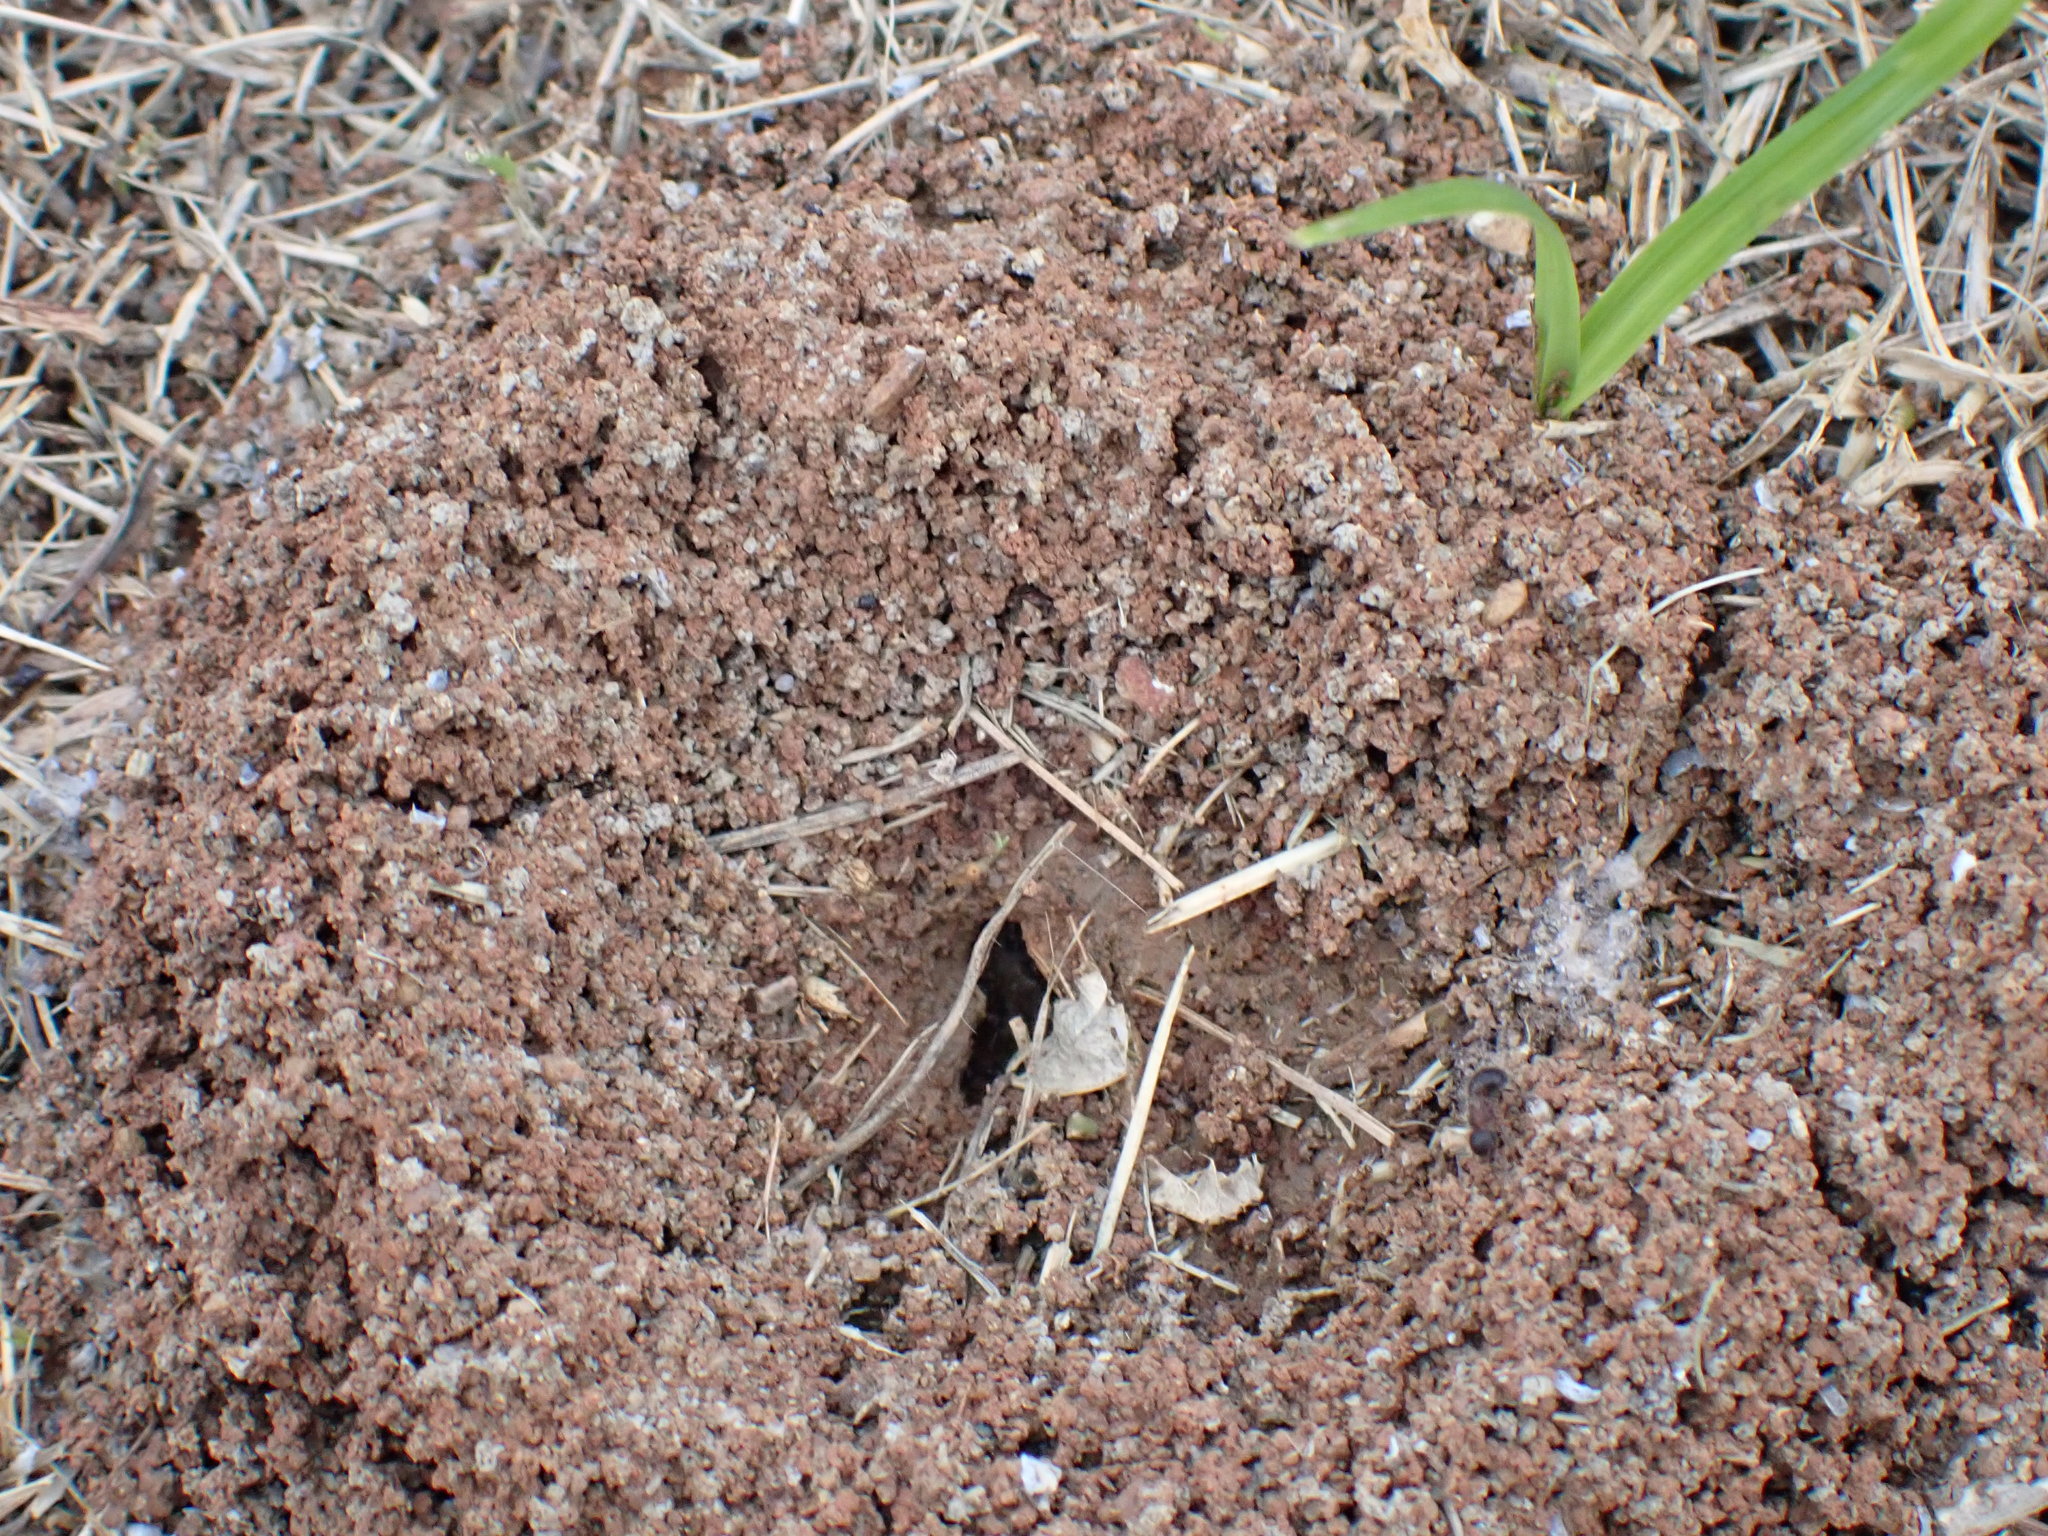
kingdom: Animalia
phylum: Arthropoda
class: Insecta
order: Hymenoptera
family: Formicidae
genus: Meranoplus
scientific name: Meranoplus bicolor
